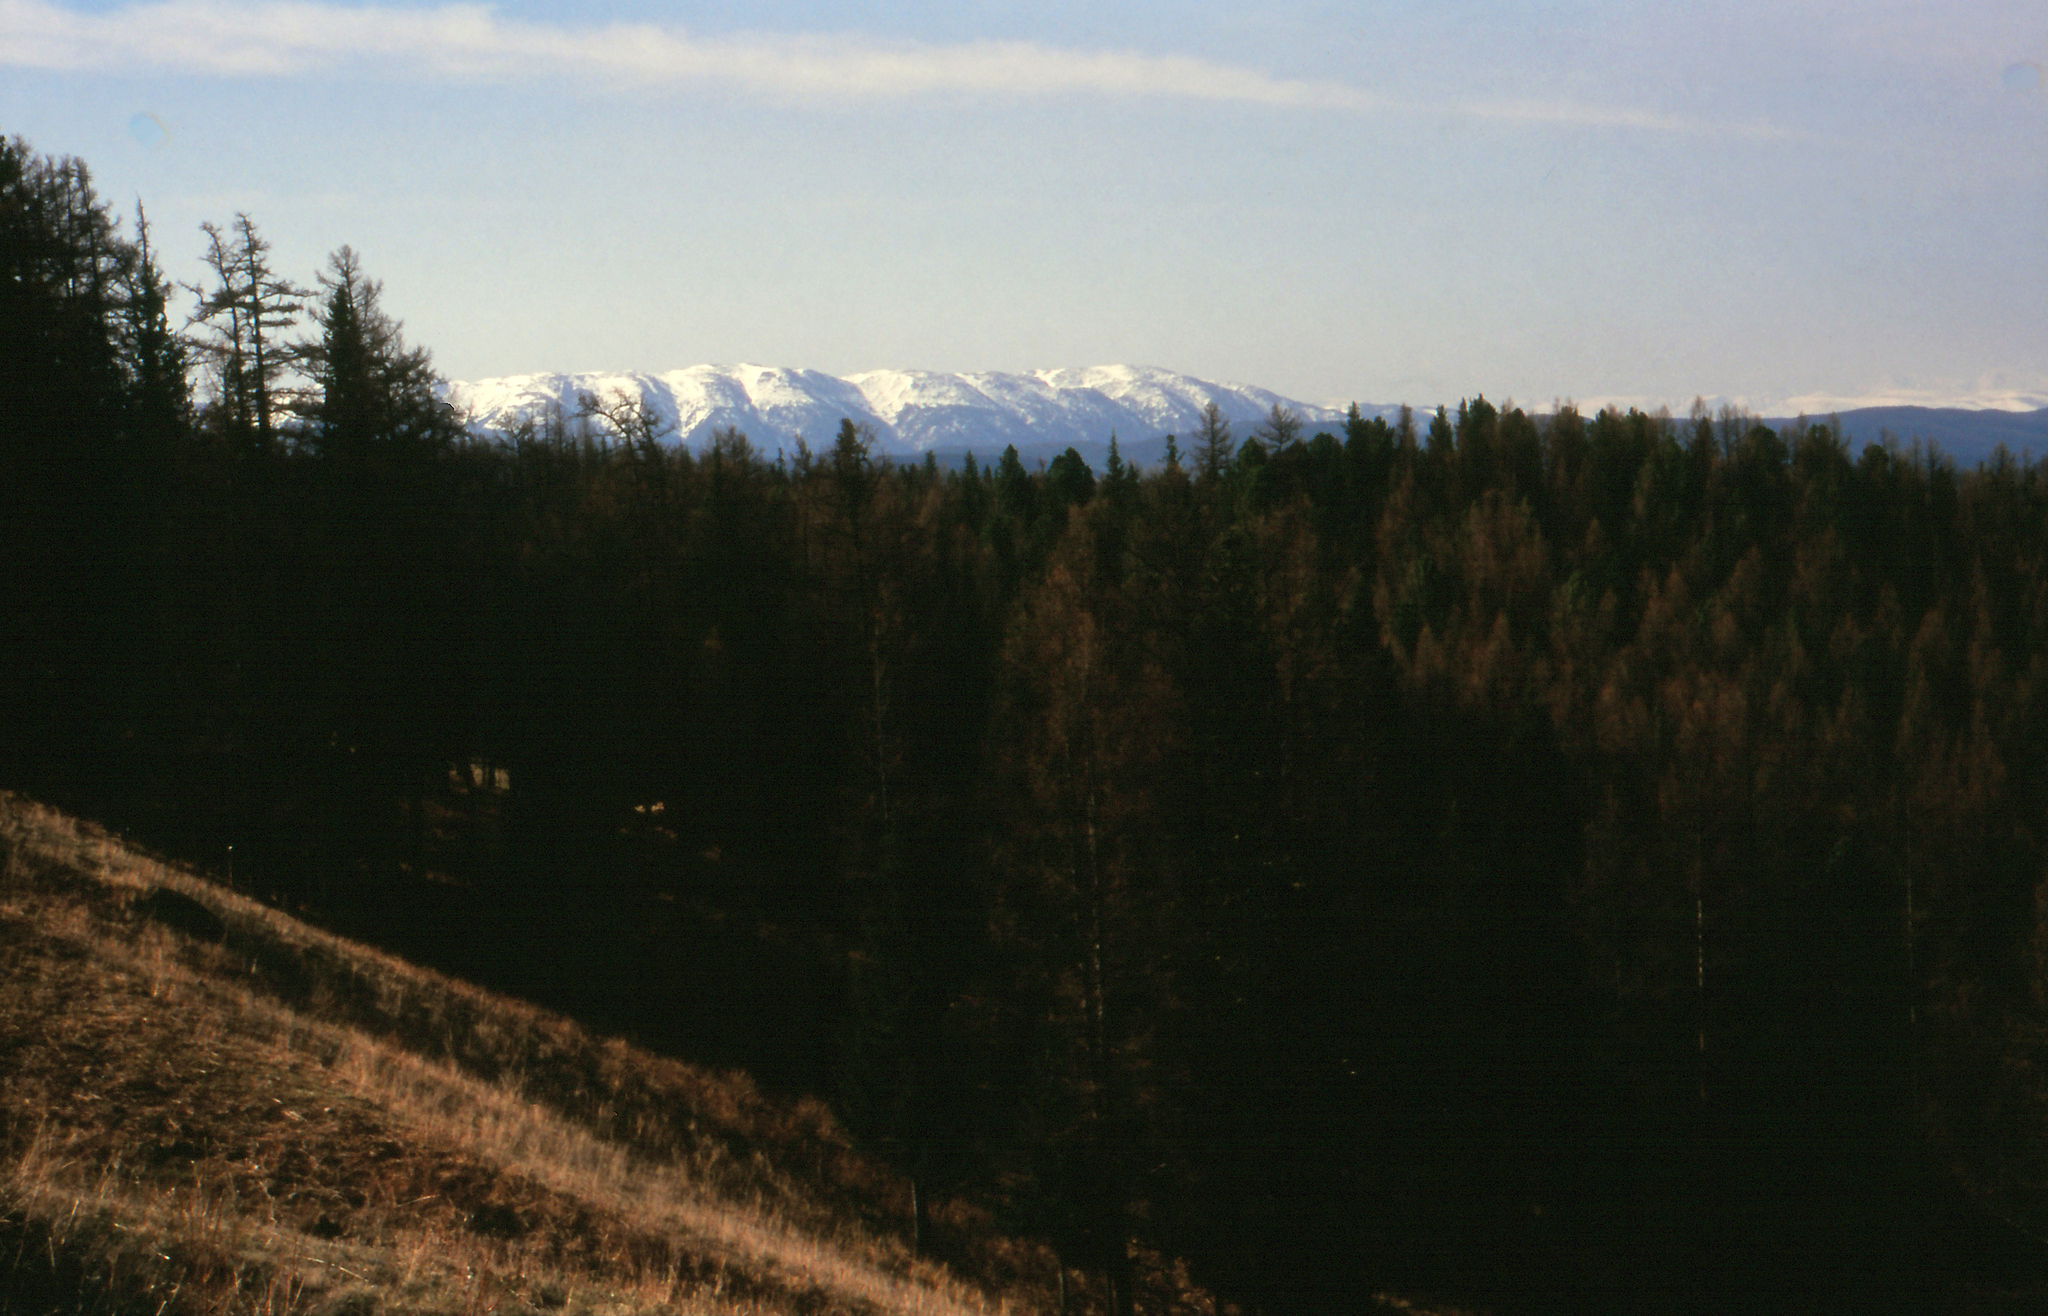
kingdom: Plantae
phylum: Tracheophyta
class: Pinopsida
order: Pinales
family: Pinaceae
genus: Larix
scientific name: Larix sibirica
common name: Siberian larch
